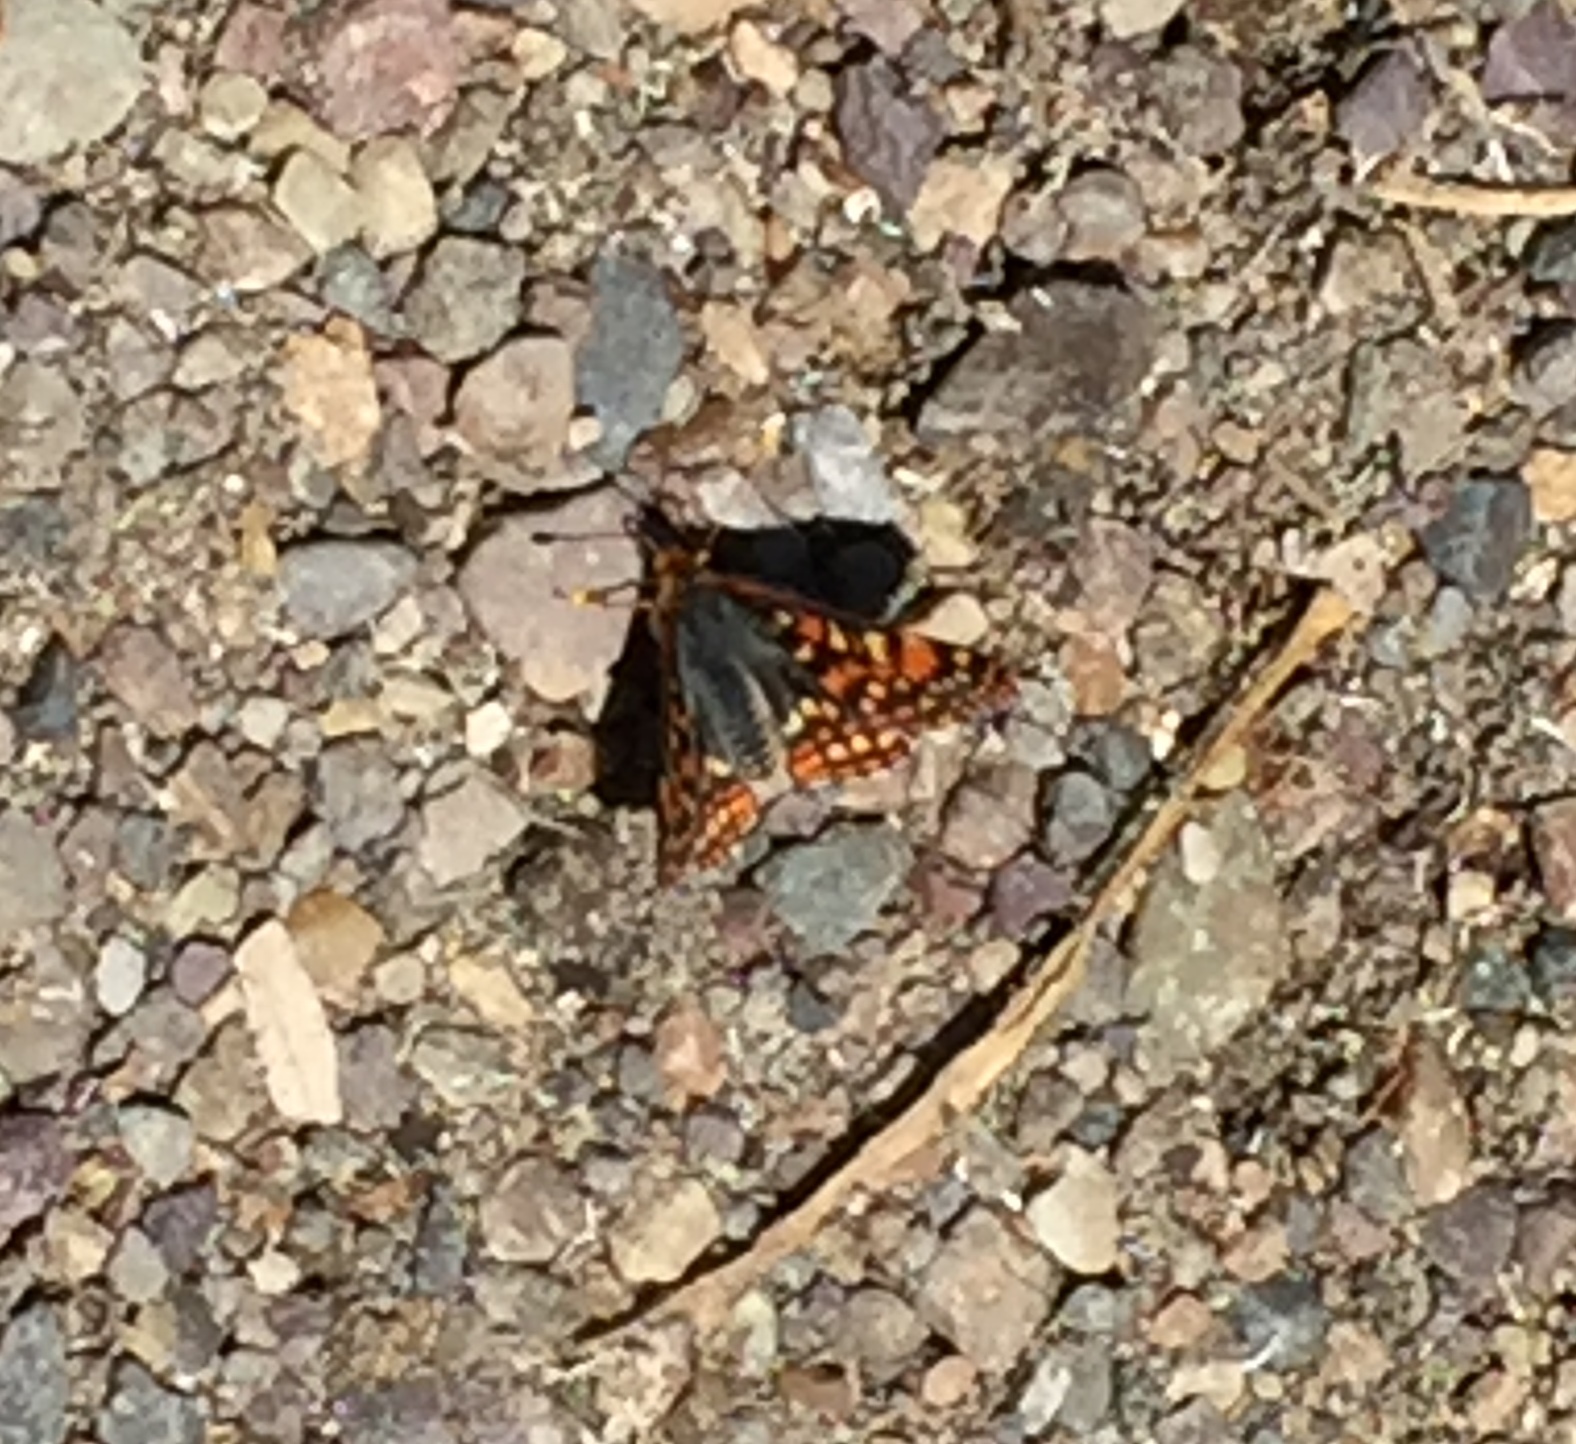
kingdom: Animalia
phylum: Arthropoda
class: Insecta
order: Lepidoptera
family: Nymphalidae
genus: Occidryas
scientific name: Occidryas anicia
